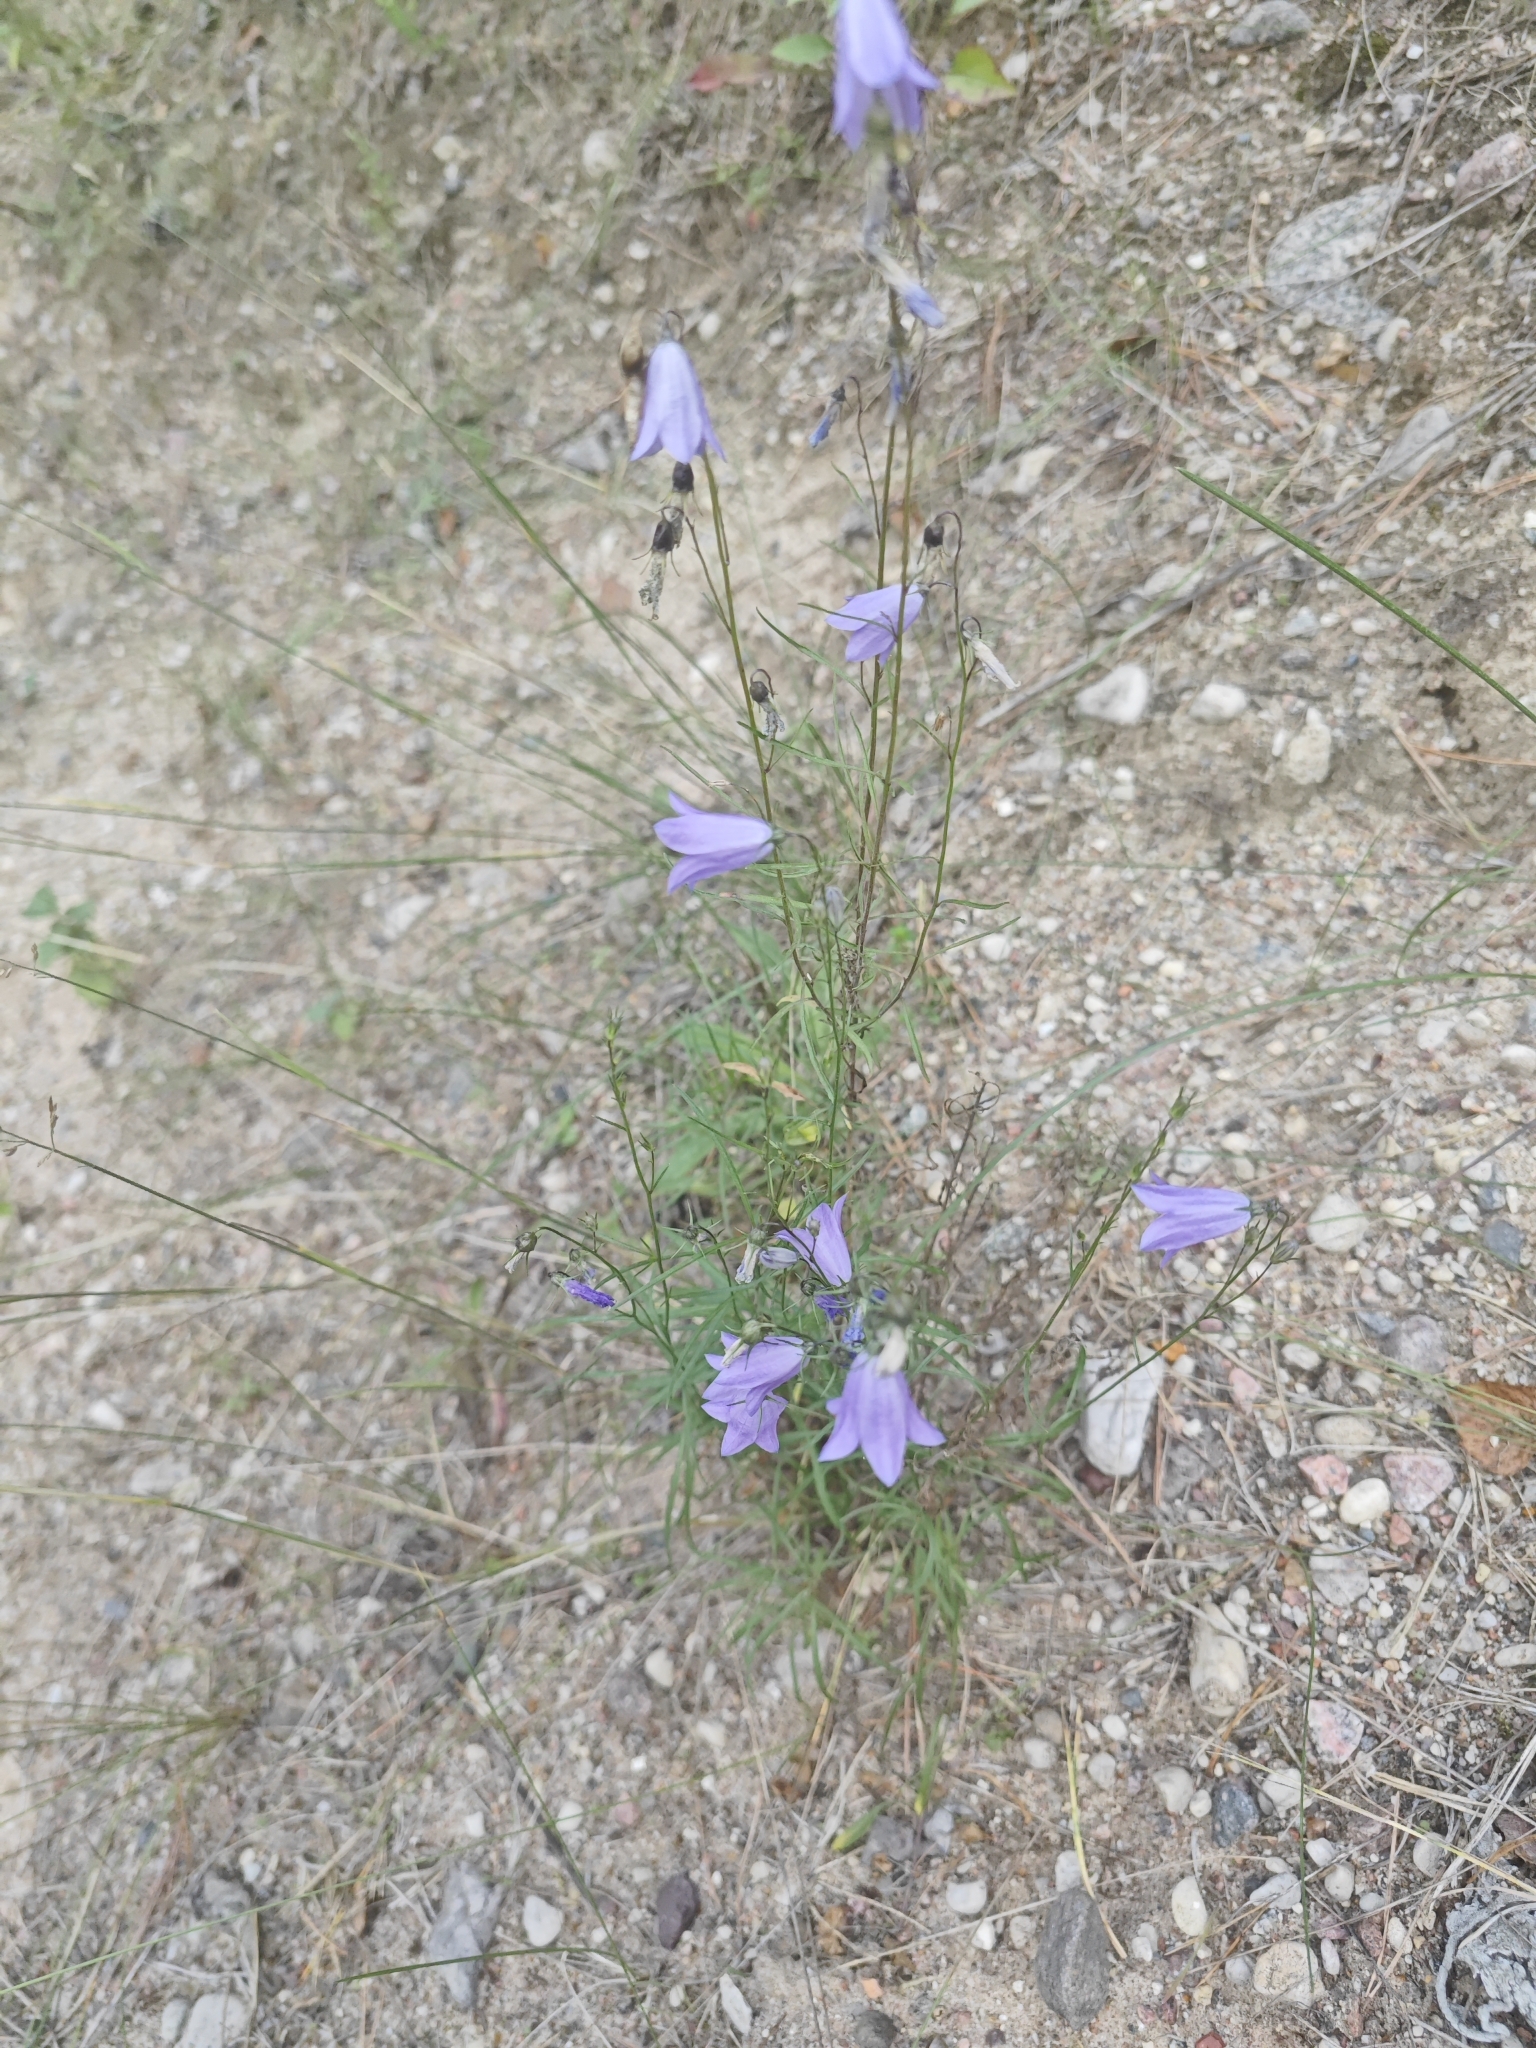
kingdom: Plantae
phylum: Tracheophyta
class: Magnoliopsida
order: Asterales
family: Campanulaceae
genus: Campanula
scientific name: Campanula rotundifolia
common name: Harebell
